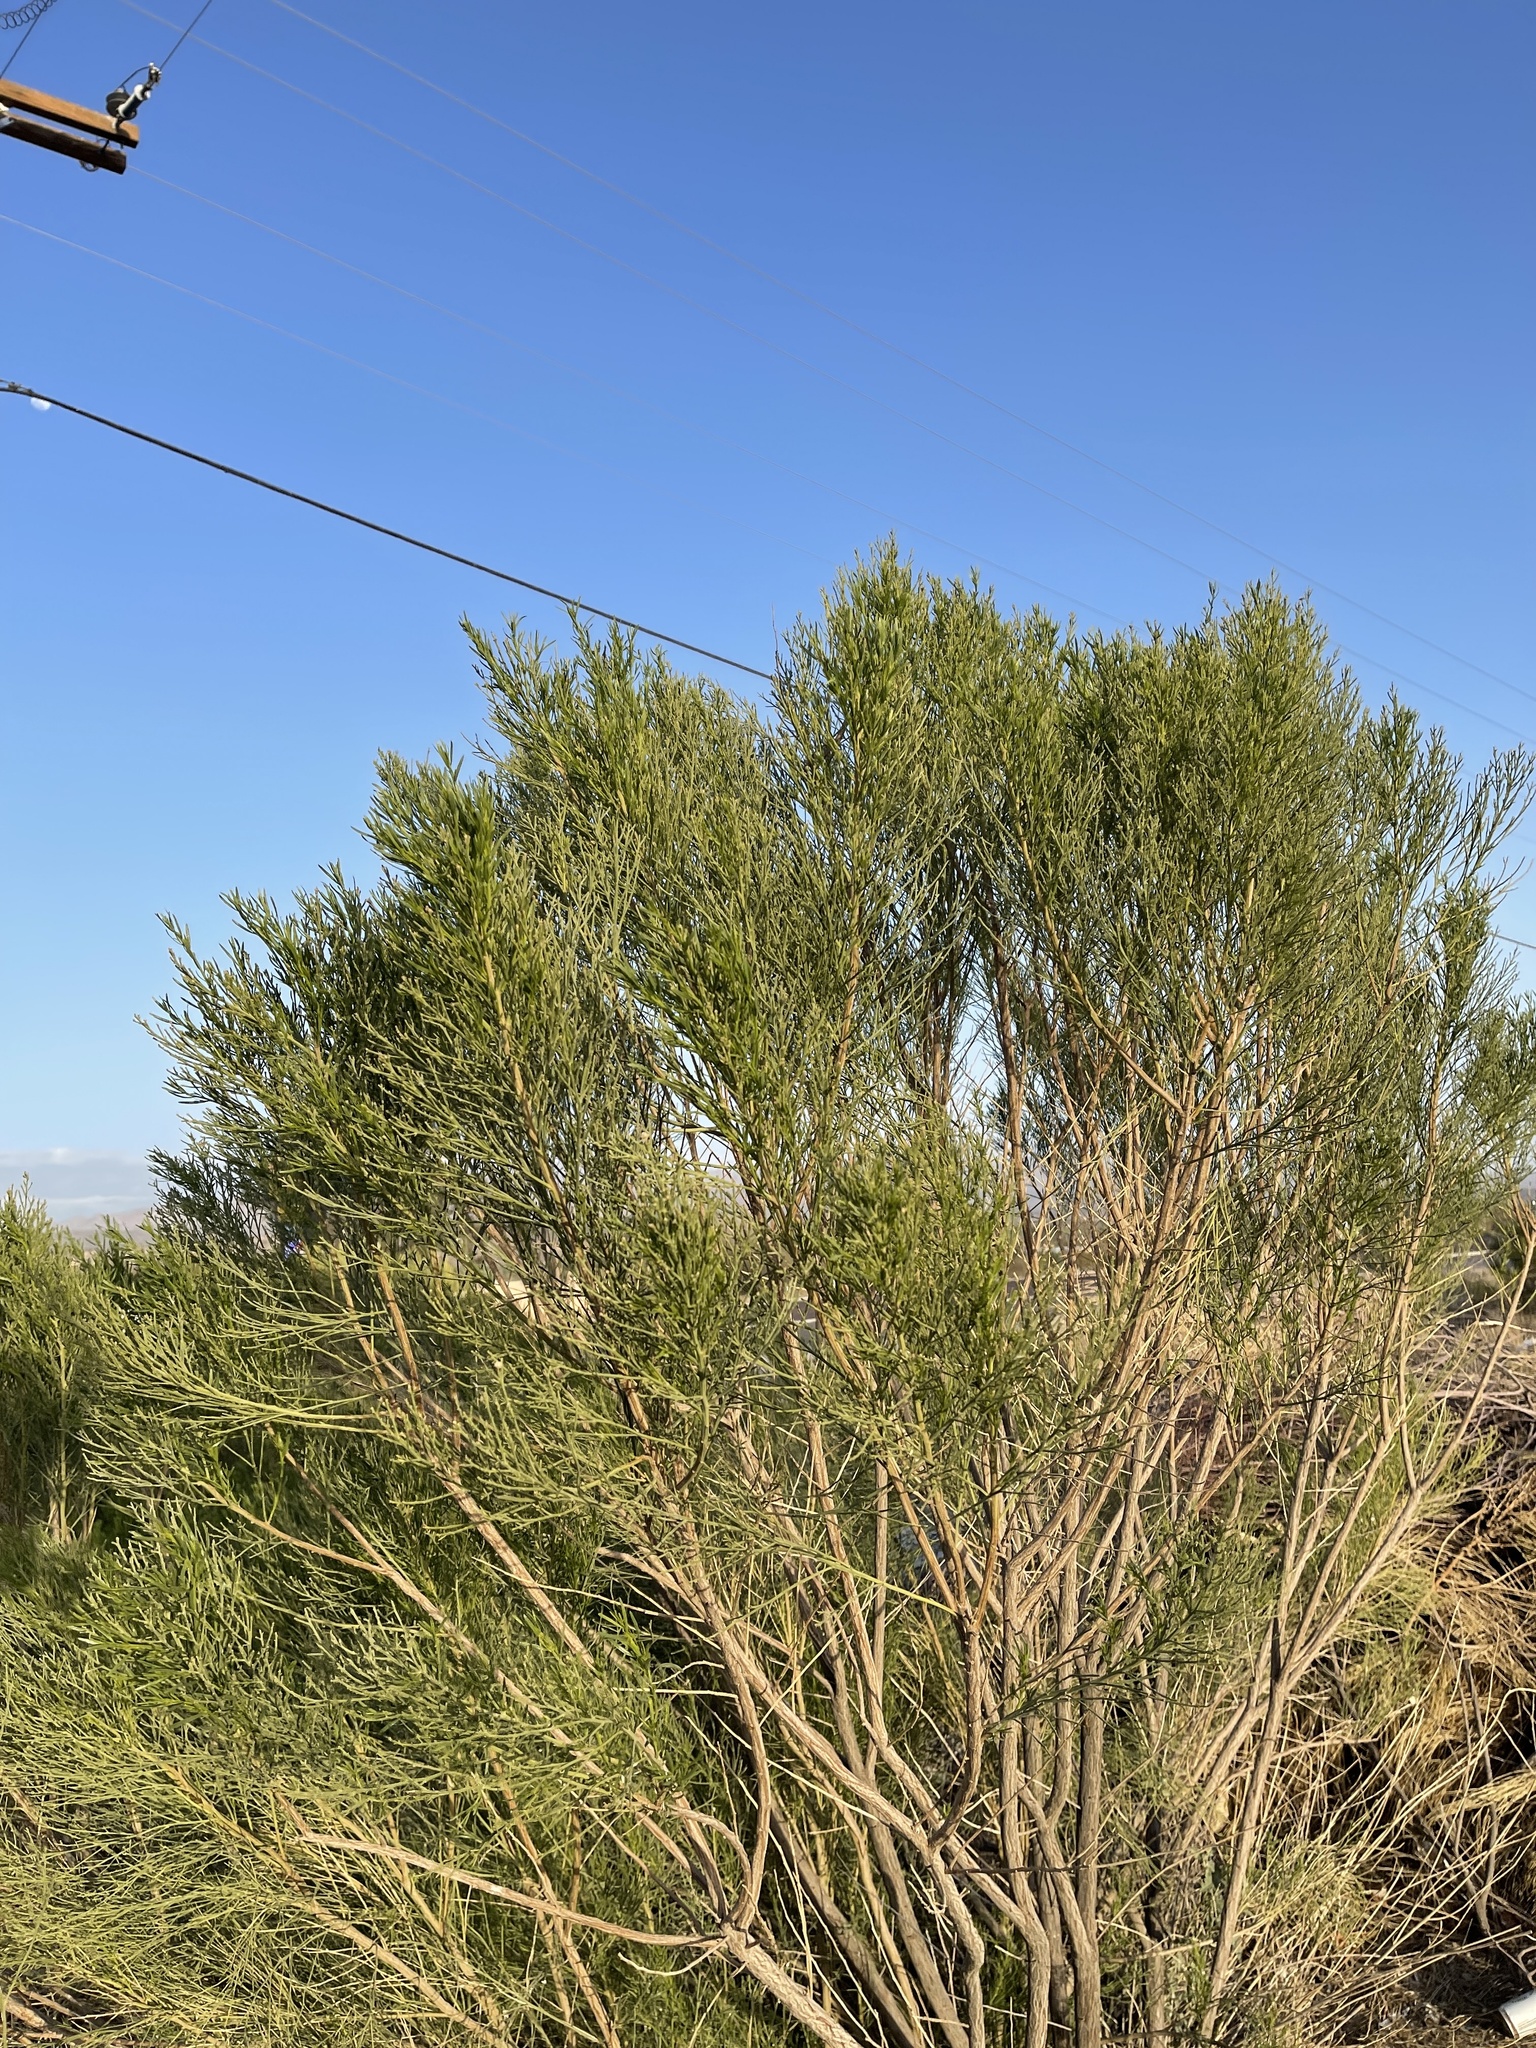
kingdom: Plantae
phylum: Tracheophyta
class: Magnoliopsida
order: Asterales
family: Asteraceae
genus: Baccharis
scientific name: Baccharis sarothroides
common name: Desert-broom
